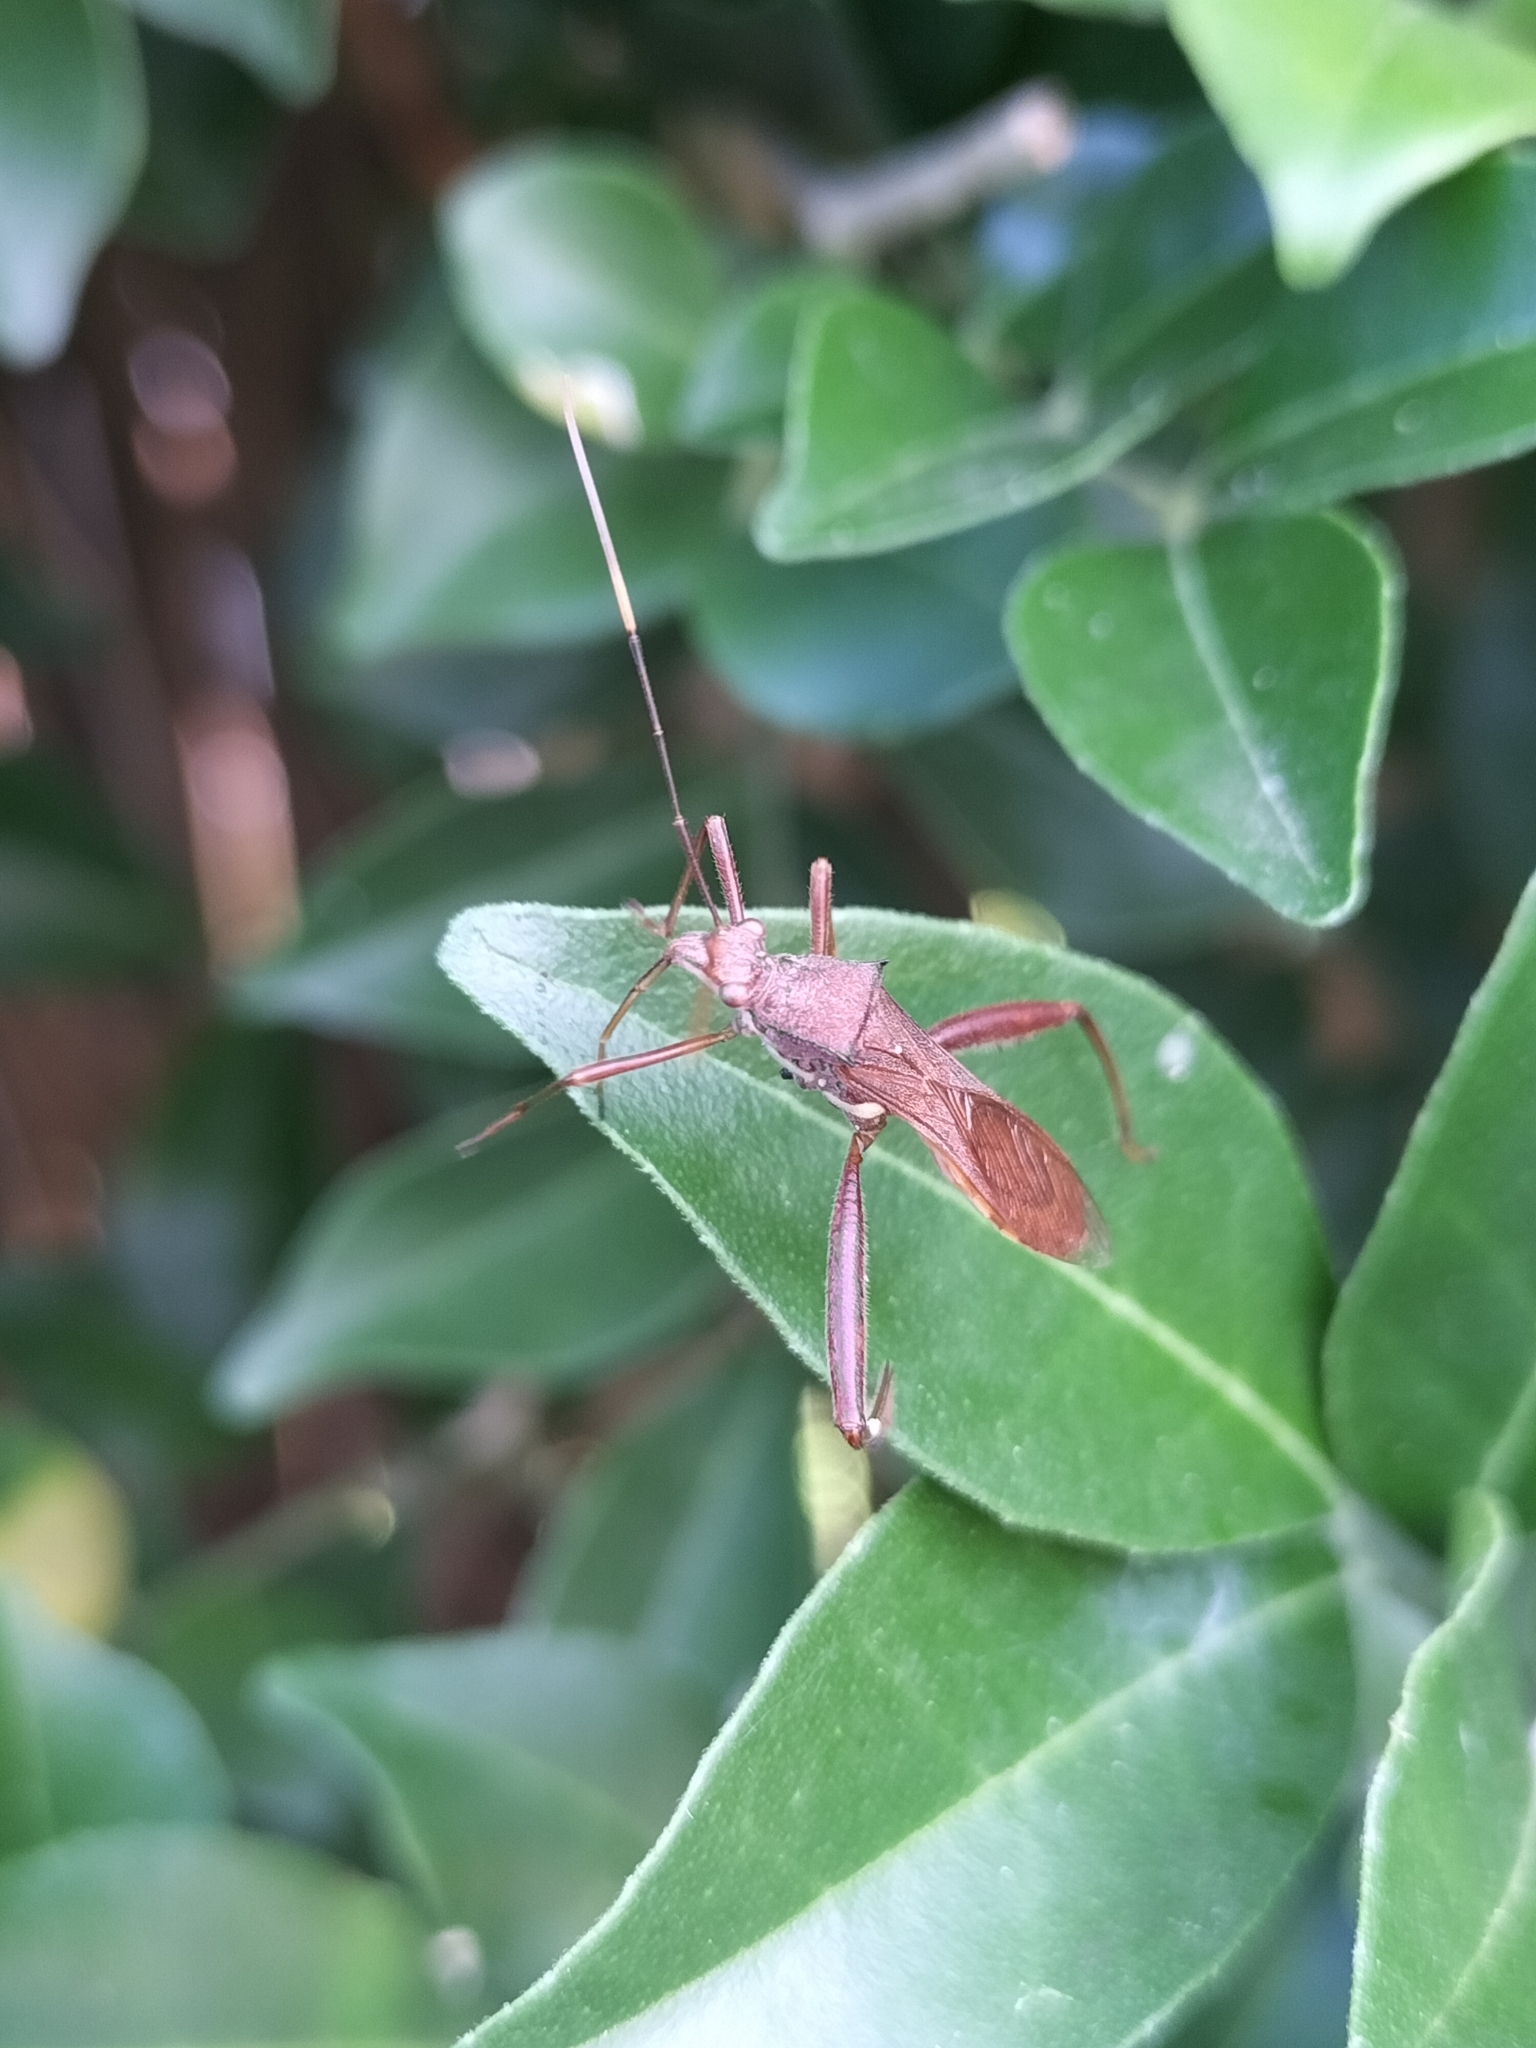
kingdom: Animalia
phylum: Arthropoda
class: Insecta
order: Hemiptera
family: Alydidae
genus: Riptortus
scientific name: Riptortus abdominalis
